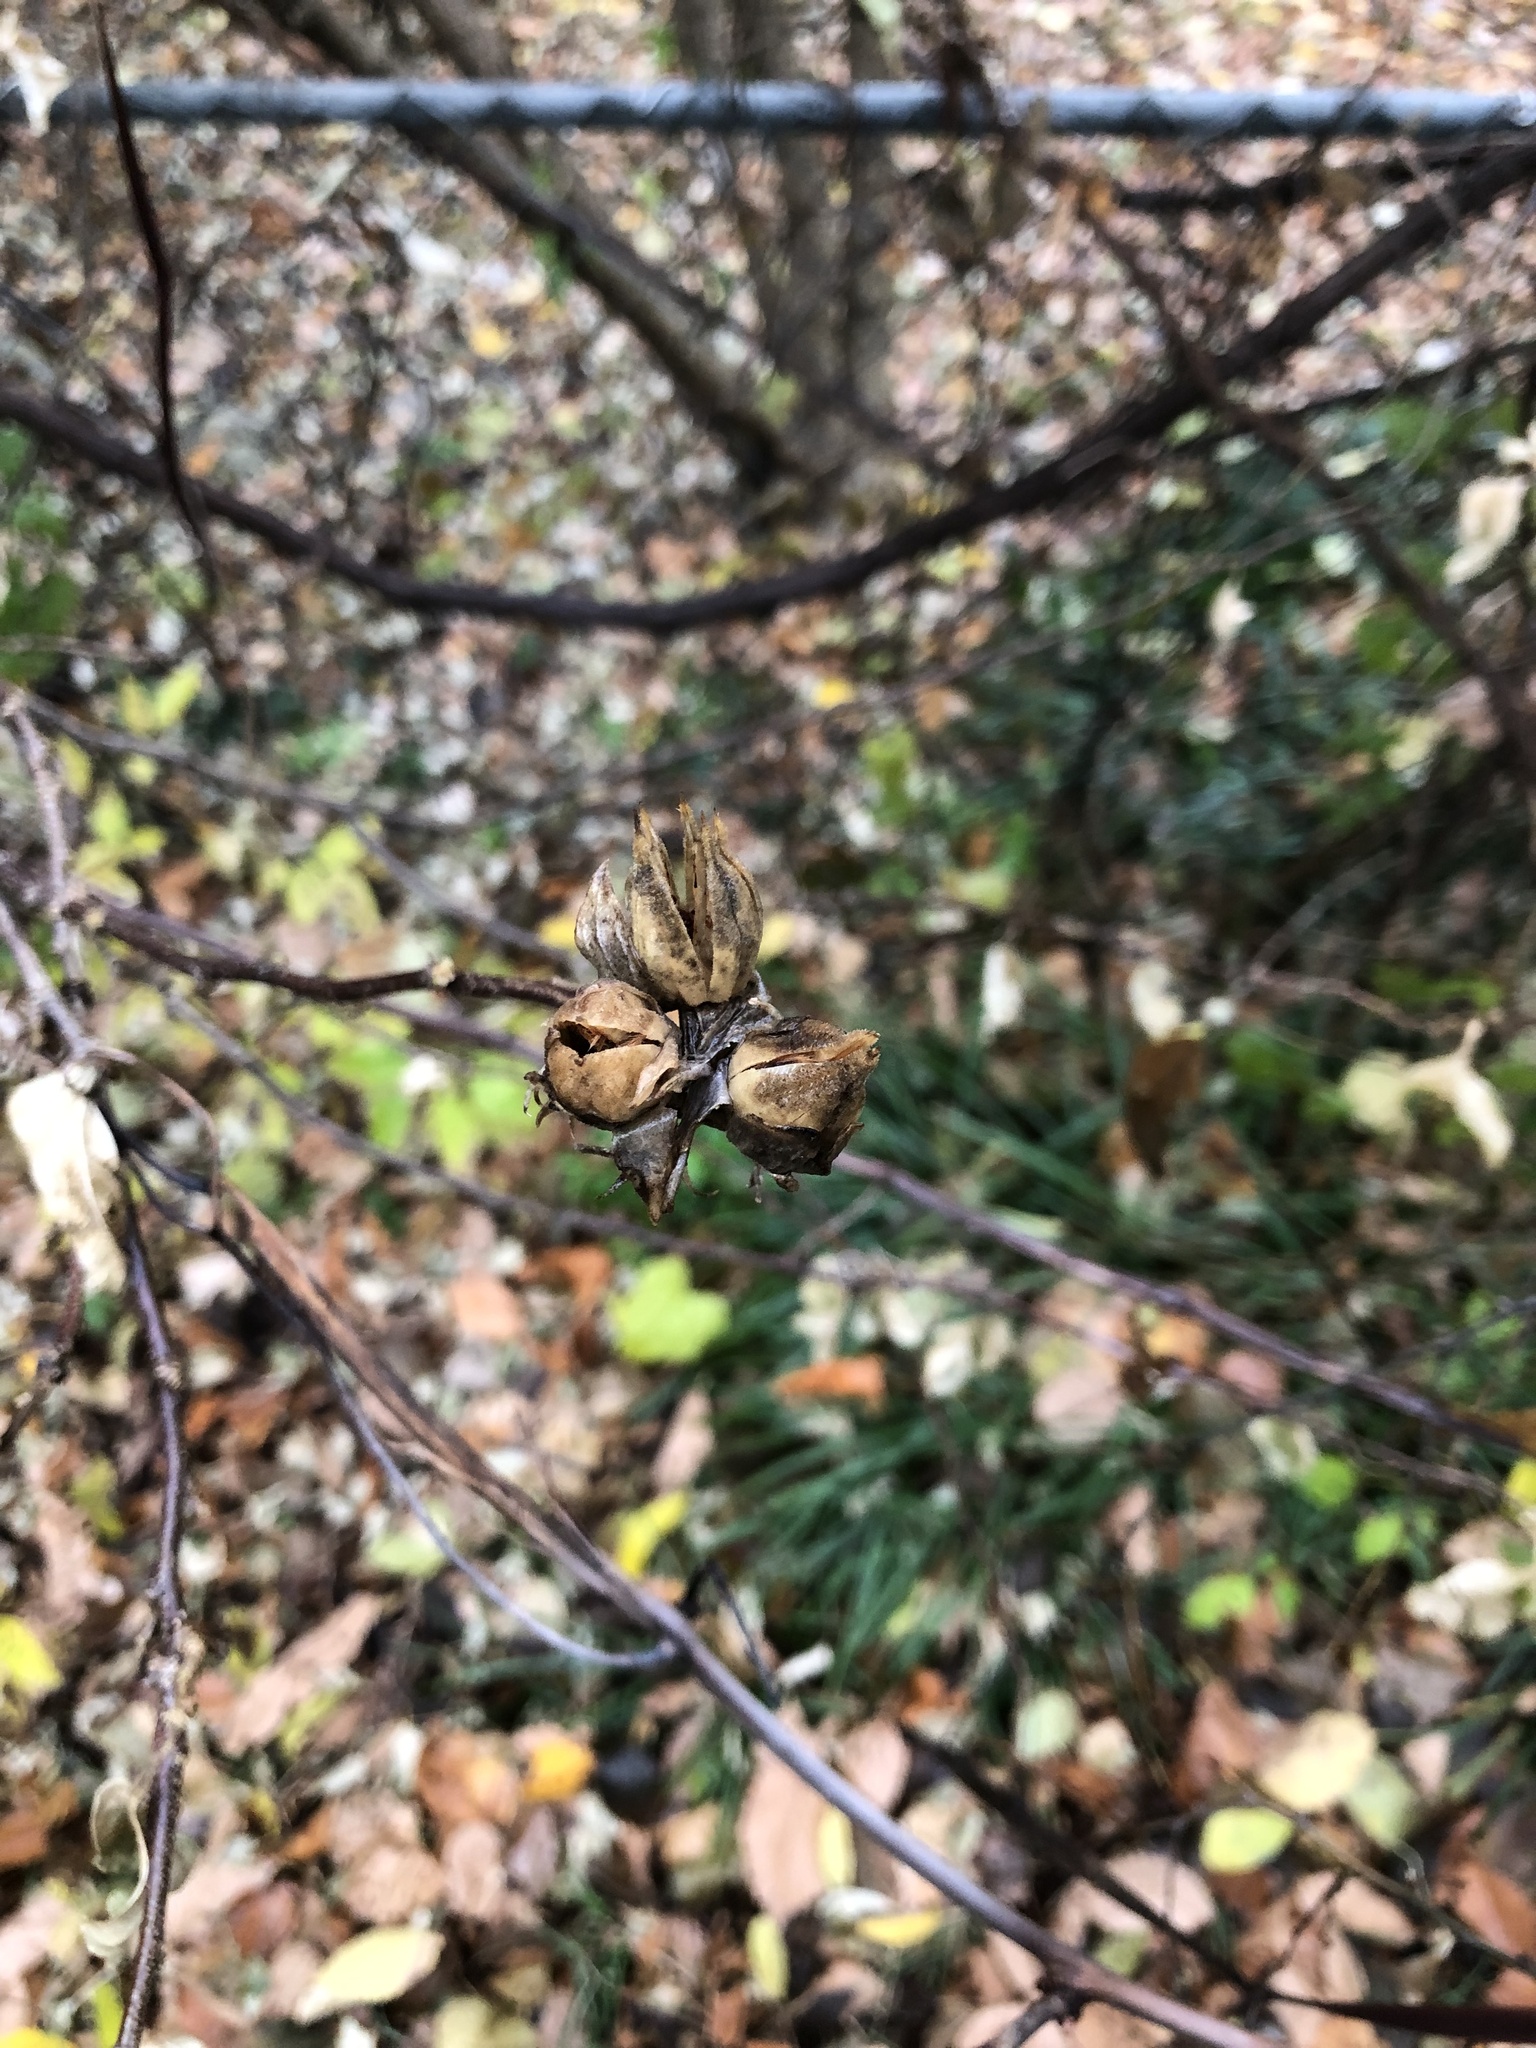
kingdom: Plantae
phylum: Tracheophyta
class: Magnoliopsida
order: Malvales
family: Malvaceae
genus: Hibiscus
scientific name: Hibiscus syriacus
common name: Syrian ketmia
